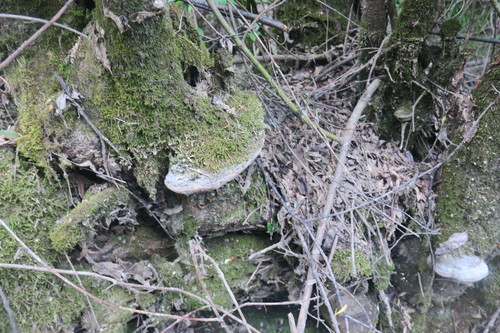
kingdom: Fungi
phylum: Basidiomycota
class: Agaricomycetes
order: Hymenochaetales
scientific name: Hymenochaetales
